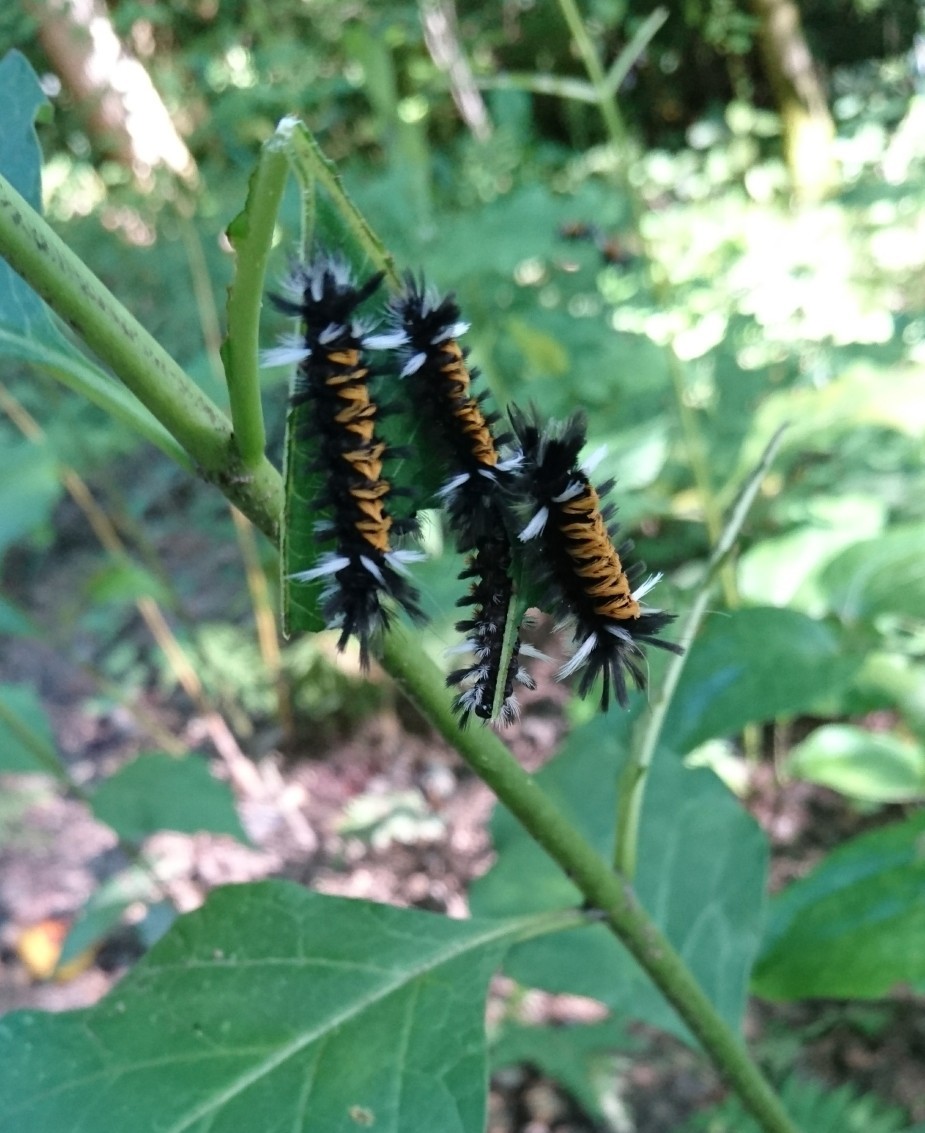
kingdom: Animalia
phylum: Arthropoda
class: Insecta
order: Lepidoptera
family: Erebidae
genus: Euchaetes
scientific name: Euchaetes egle
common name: Milkweed tussock moth
